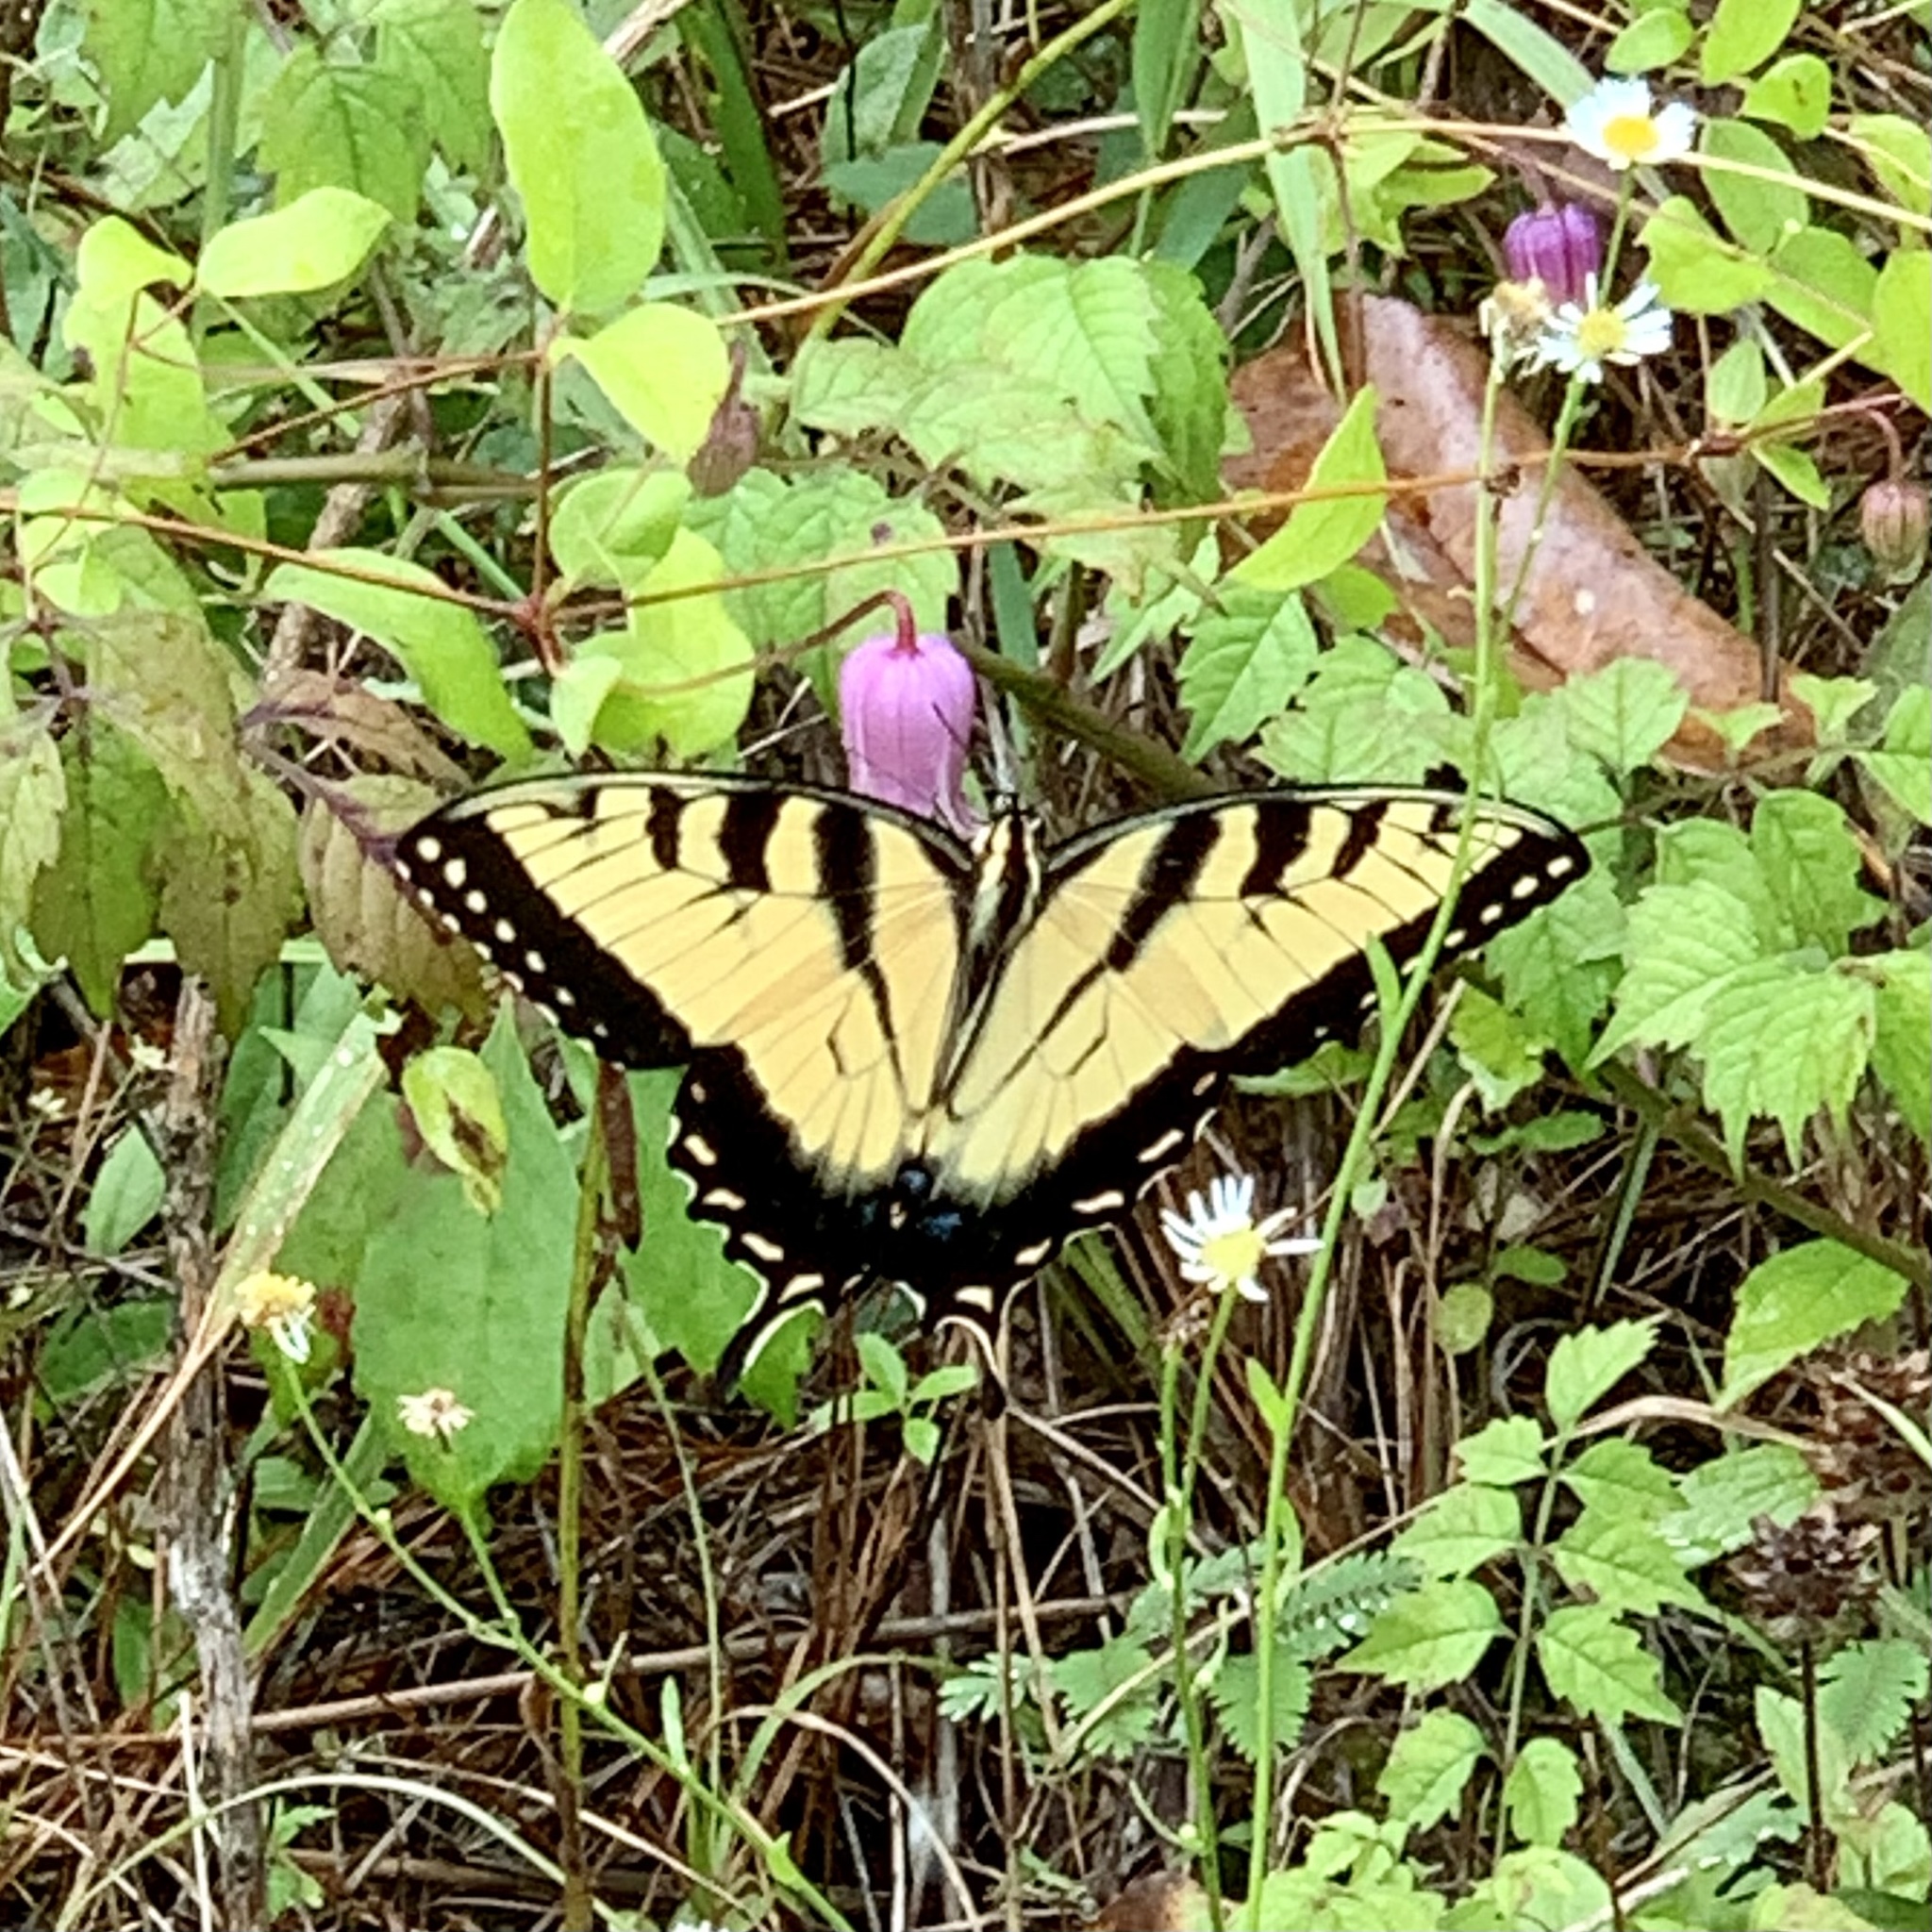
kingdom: Animalia
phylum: Arthropoda
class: Insecta
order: Lepidoptera
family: Papilionidae
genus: Papilio
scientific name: Papilio glaucus
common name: Tiger swallowtail
